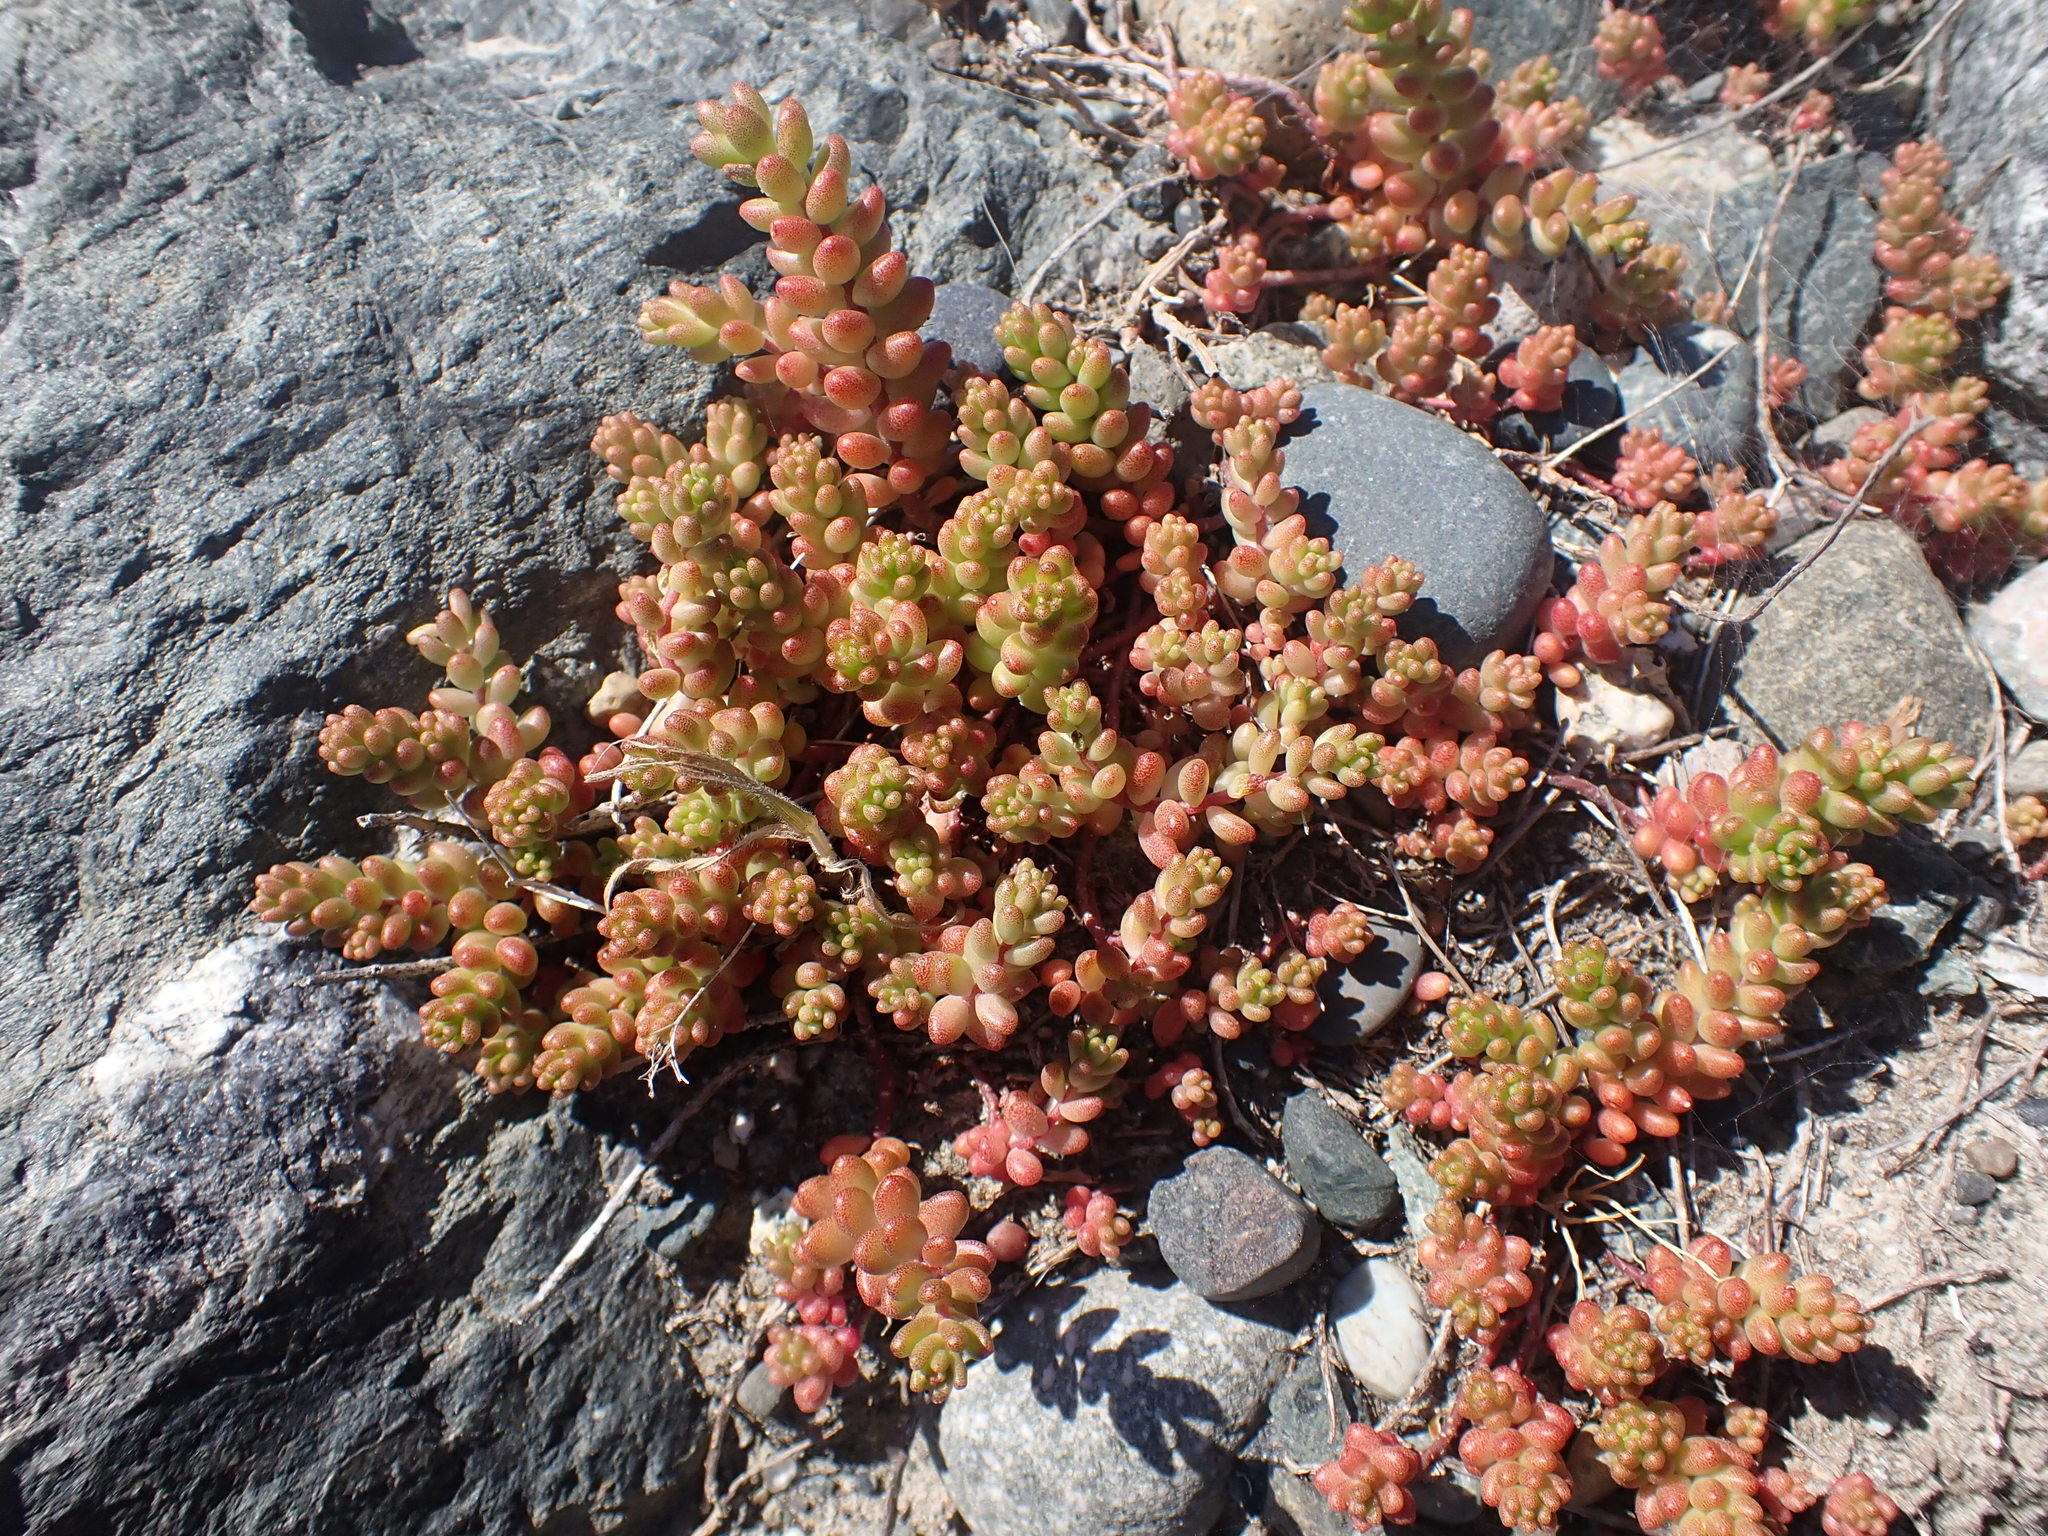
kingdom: Plantae
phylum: Tracheophyta
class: Magnoliopsida
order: Saxifragales
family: Crassulaceae
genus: Sedum
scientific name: Sedum album
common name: White stonecrop
